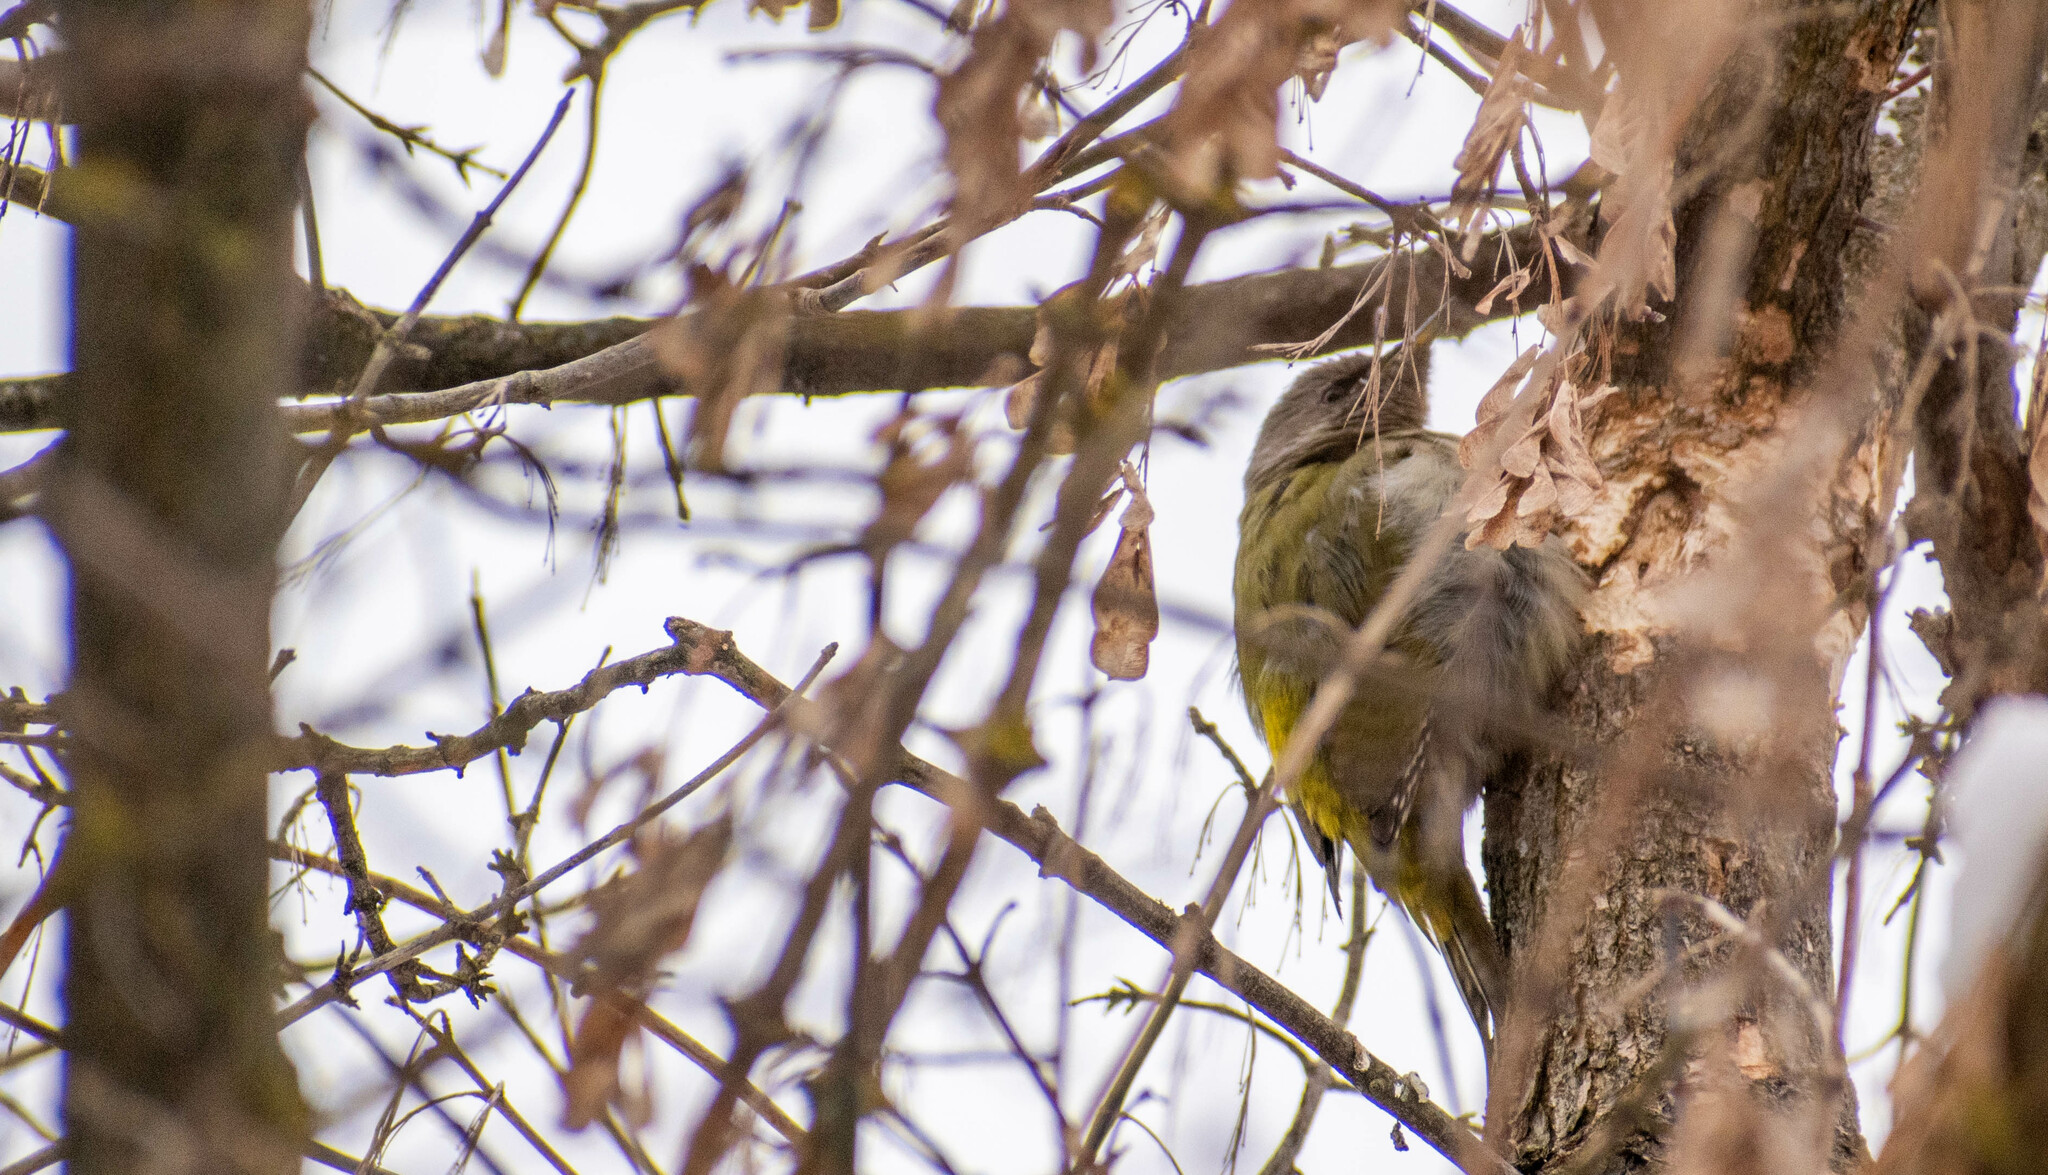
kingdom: Animalia
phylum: Chordata
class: Aves
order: Piciformes
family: Picidae
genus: Picus
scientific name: Picus canus
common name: Grey-headed woodpecker
